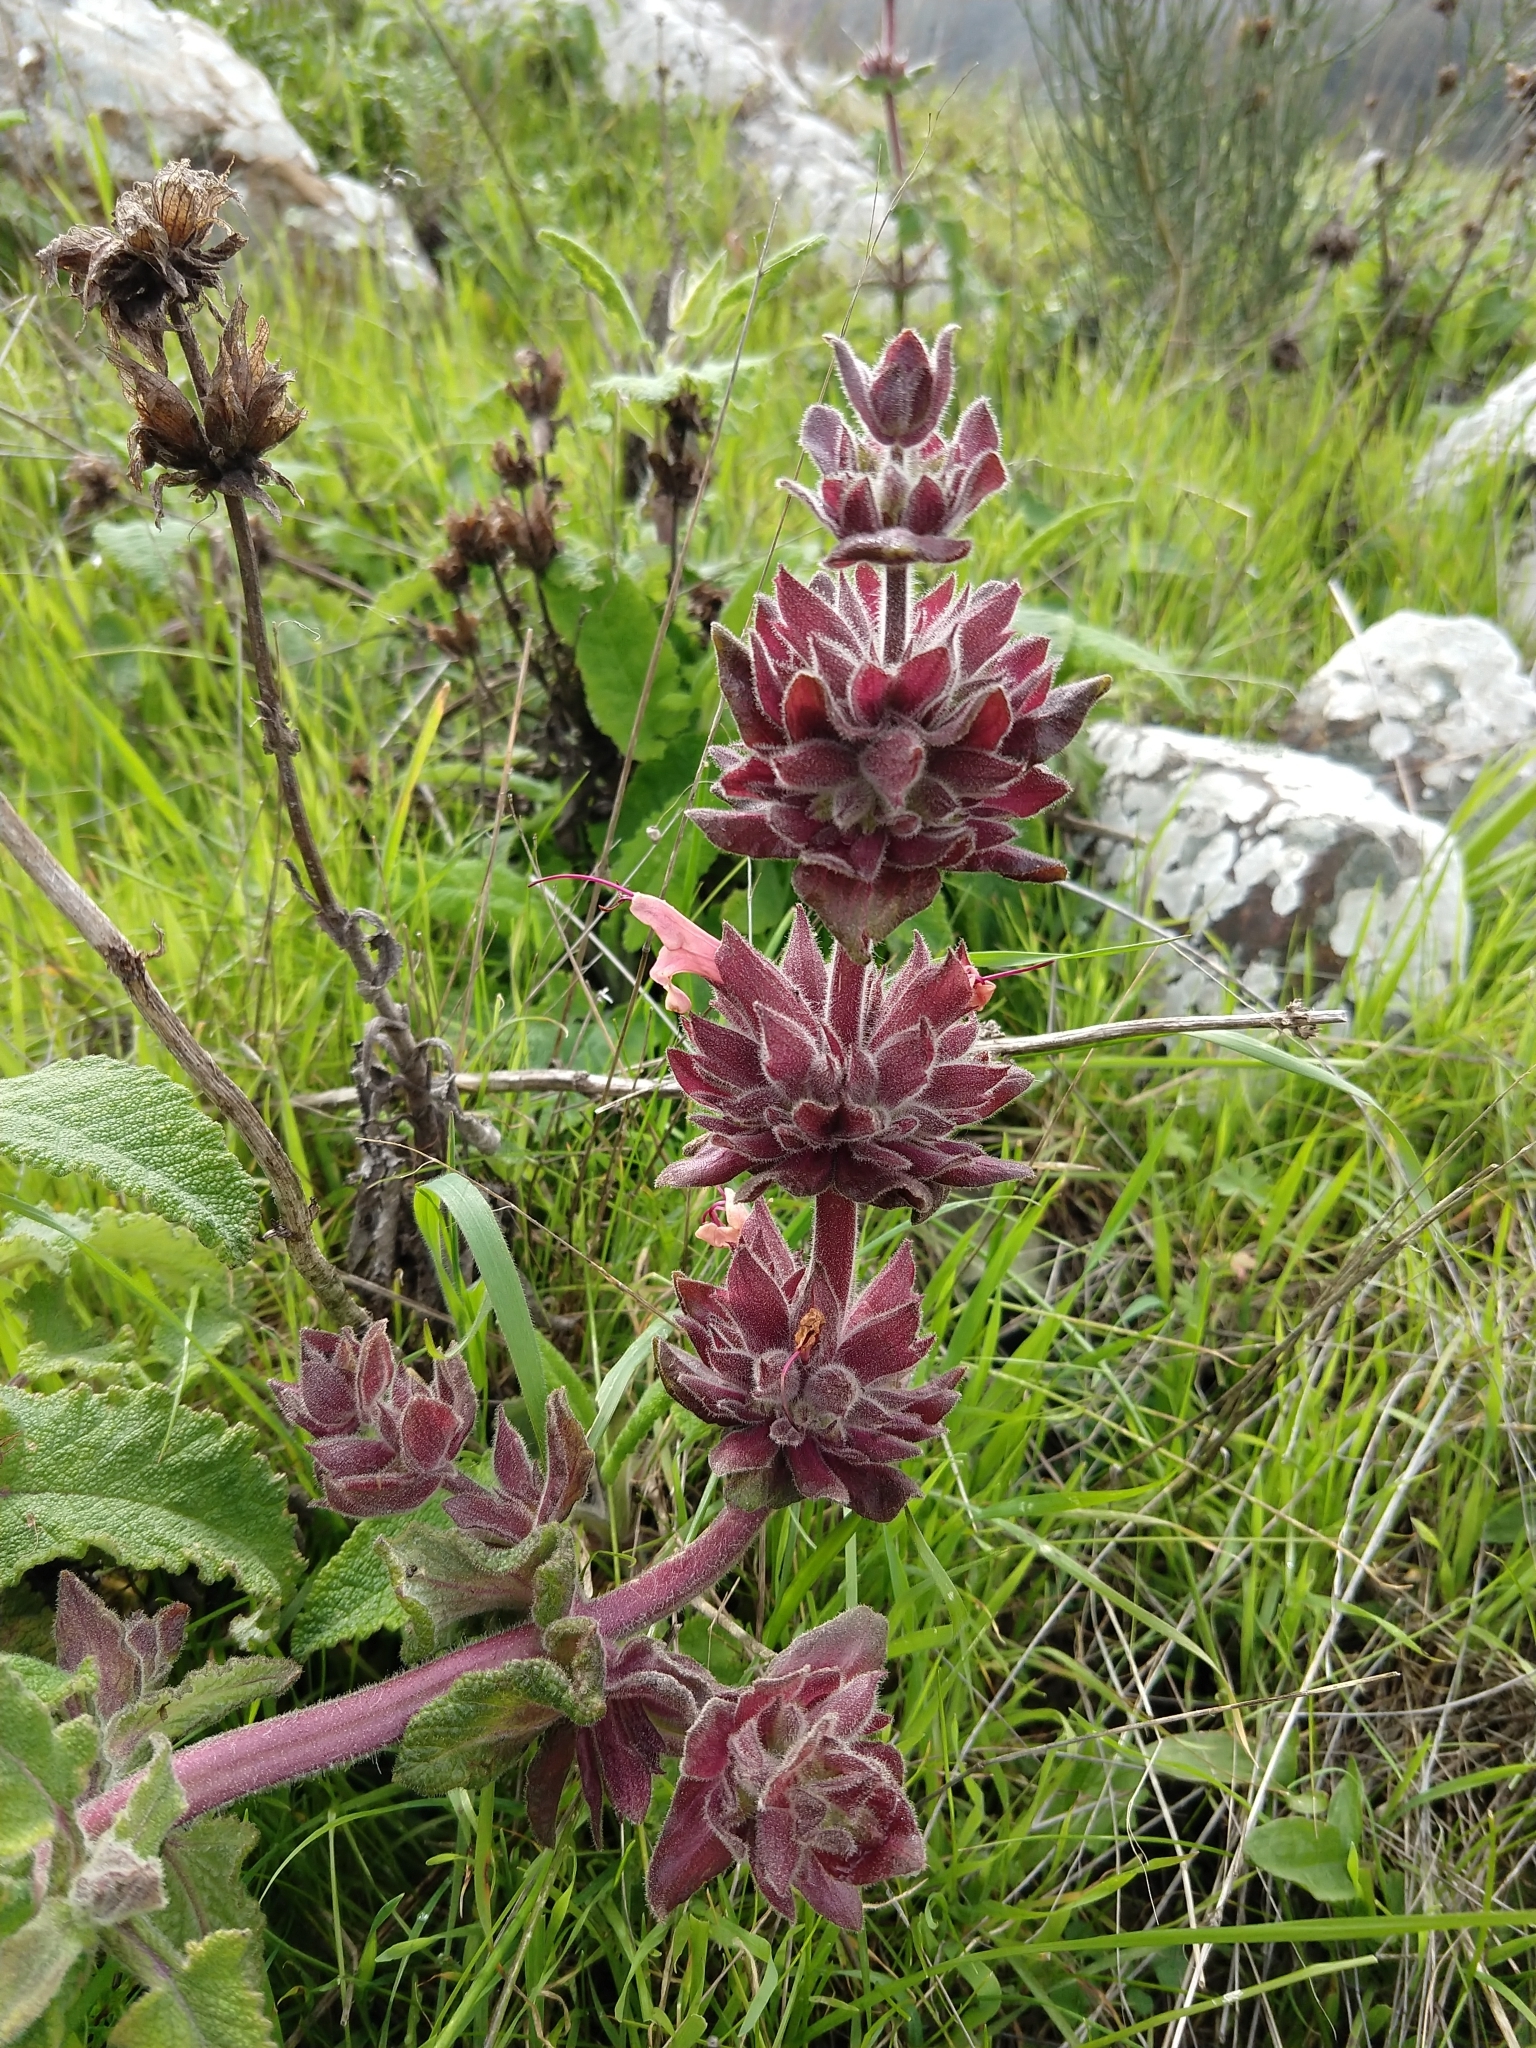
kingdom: Plantae
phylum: Tracheophyta
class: Magnoliopsida
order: Lamiales
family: Lamiaceae
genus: Salvia
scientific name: Salvia spathacea
